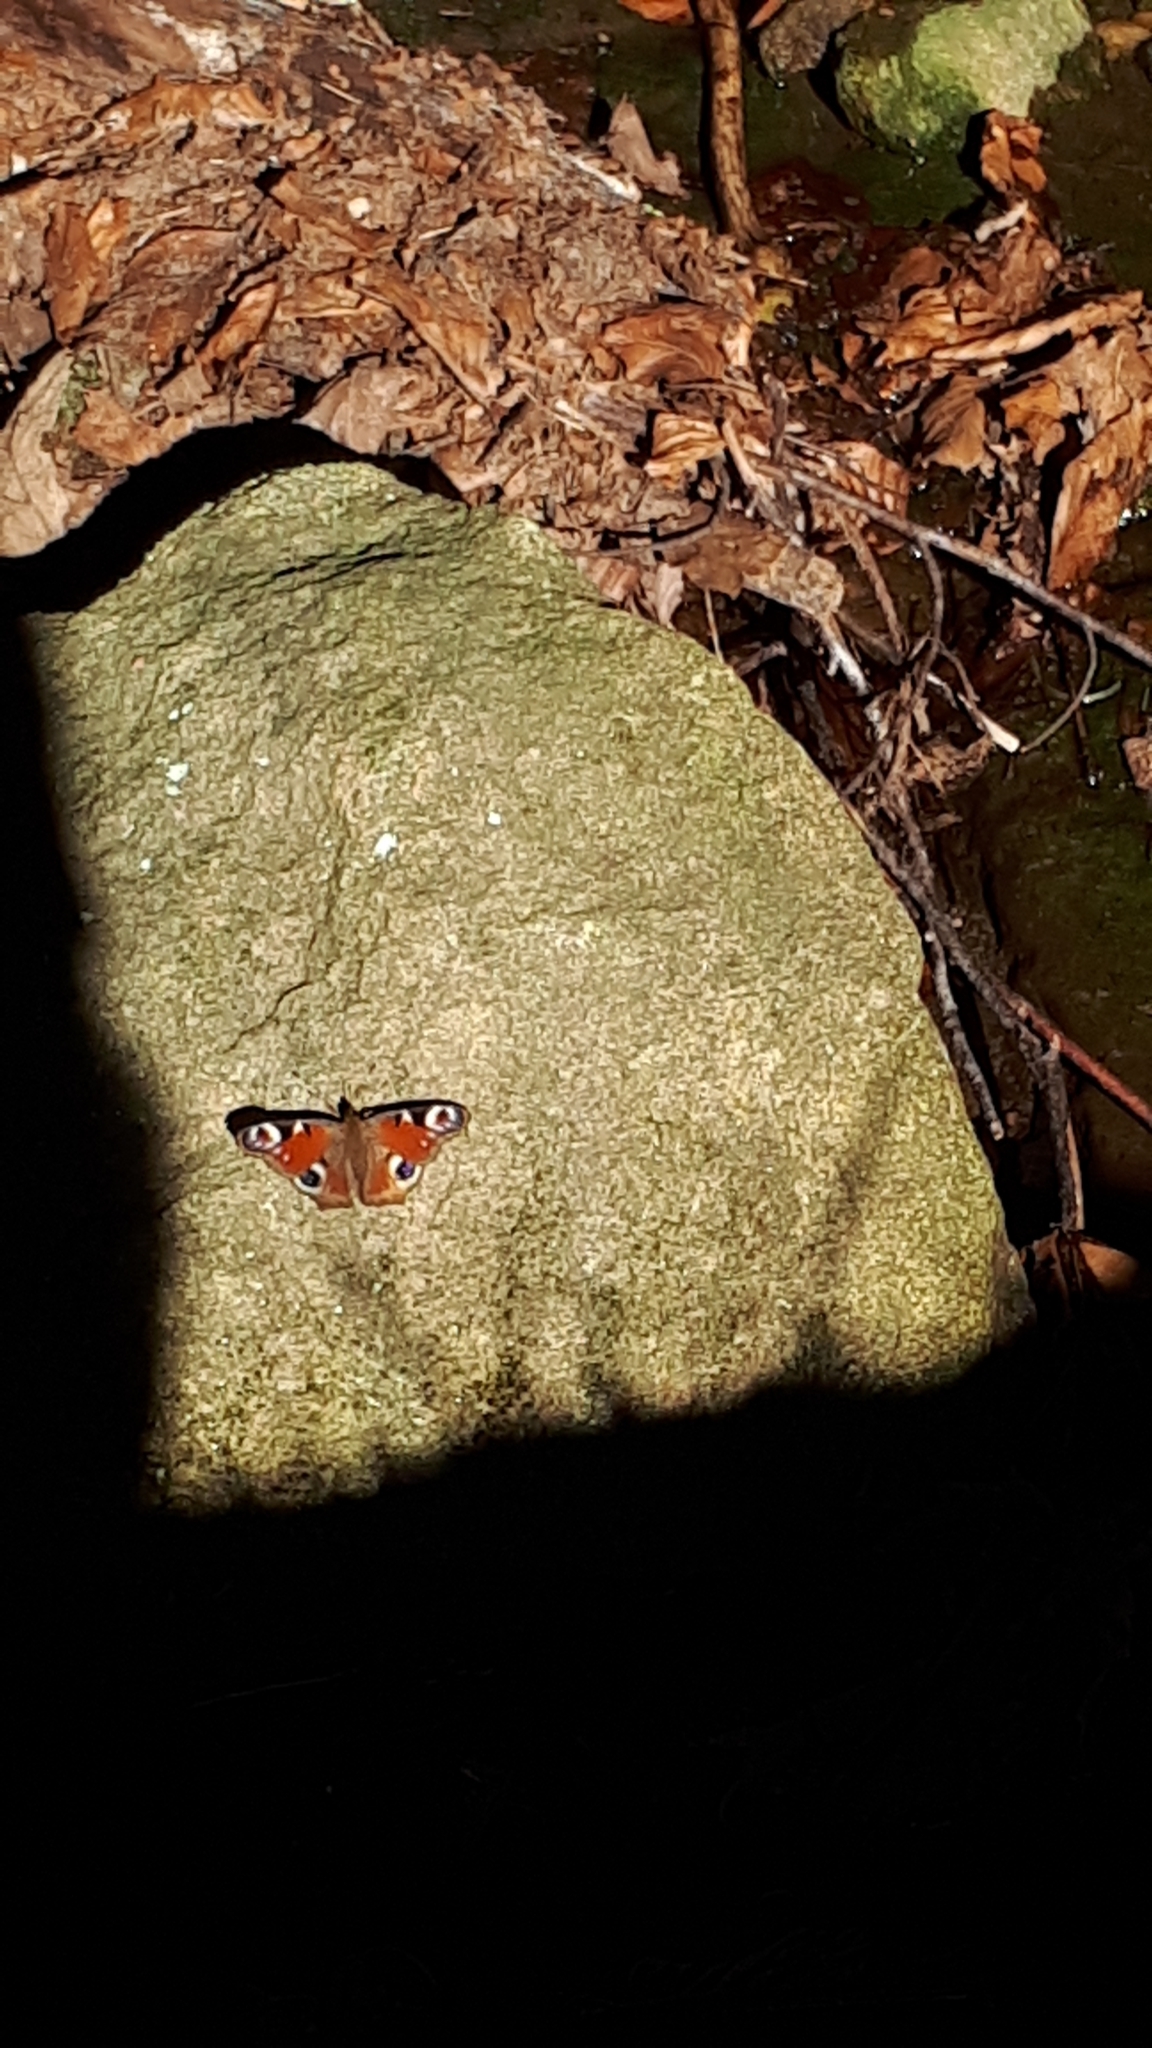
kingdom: Animalia
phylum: Arthropoda
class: Insecta
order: Lepidoptera
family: Nymphalidae
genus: Aglais
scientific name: Aglais io
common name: Peacock
